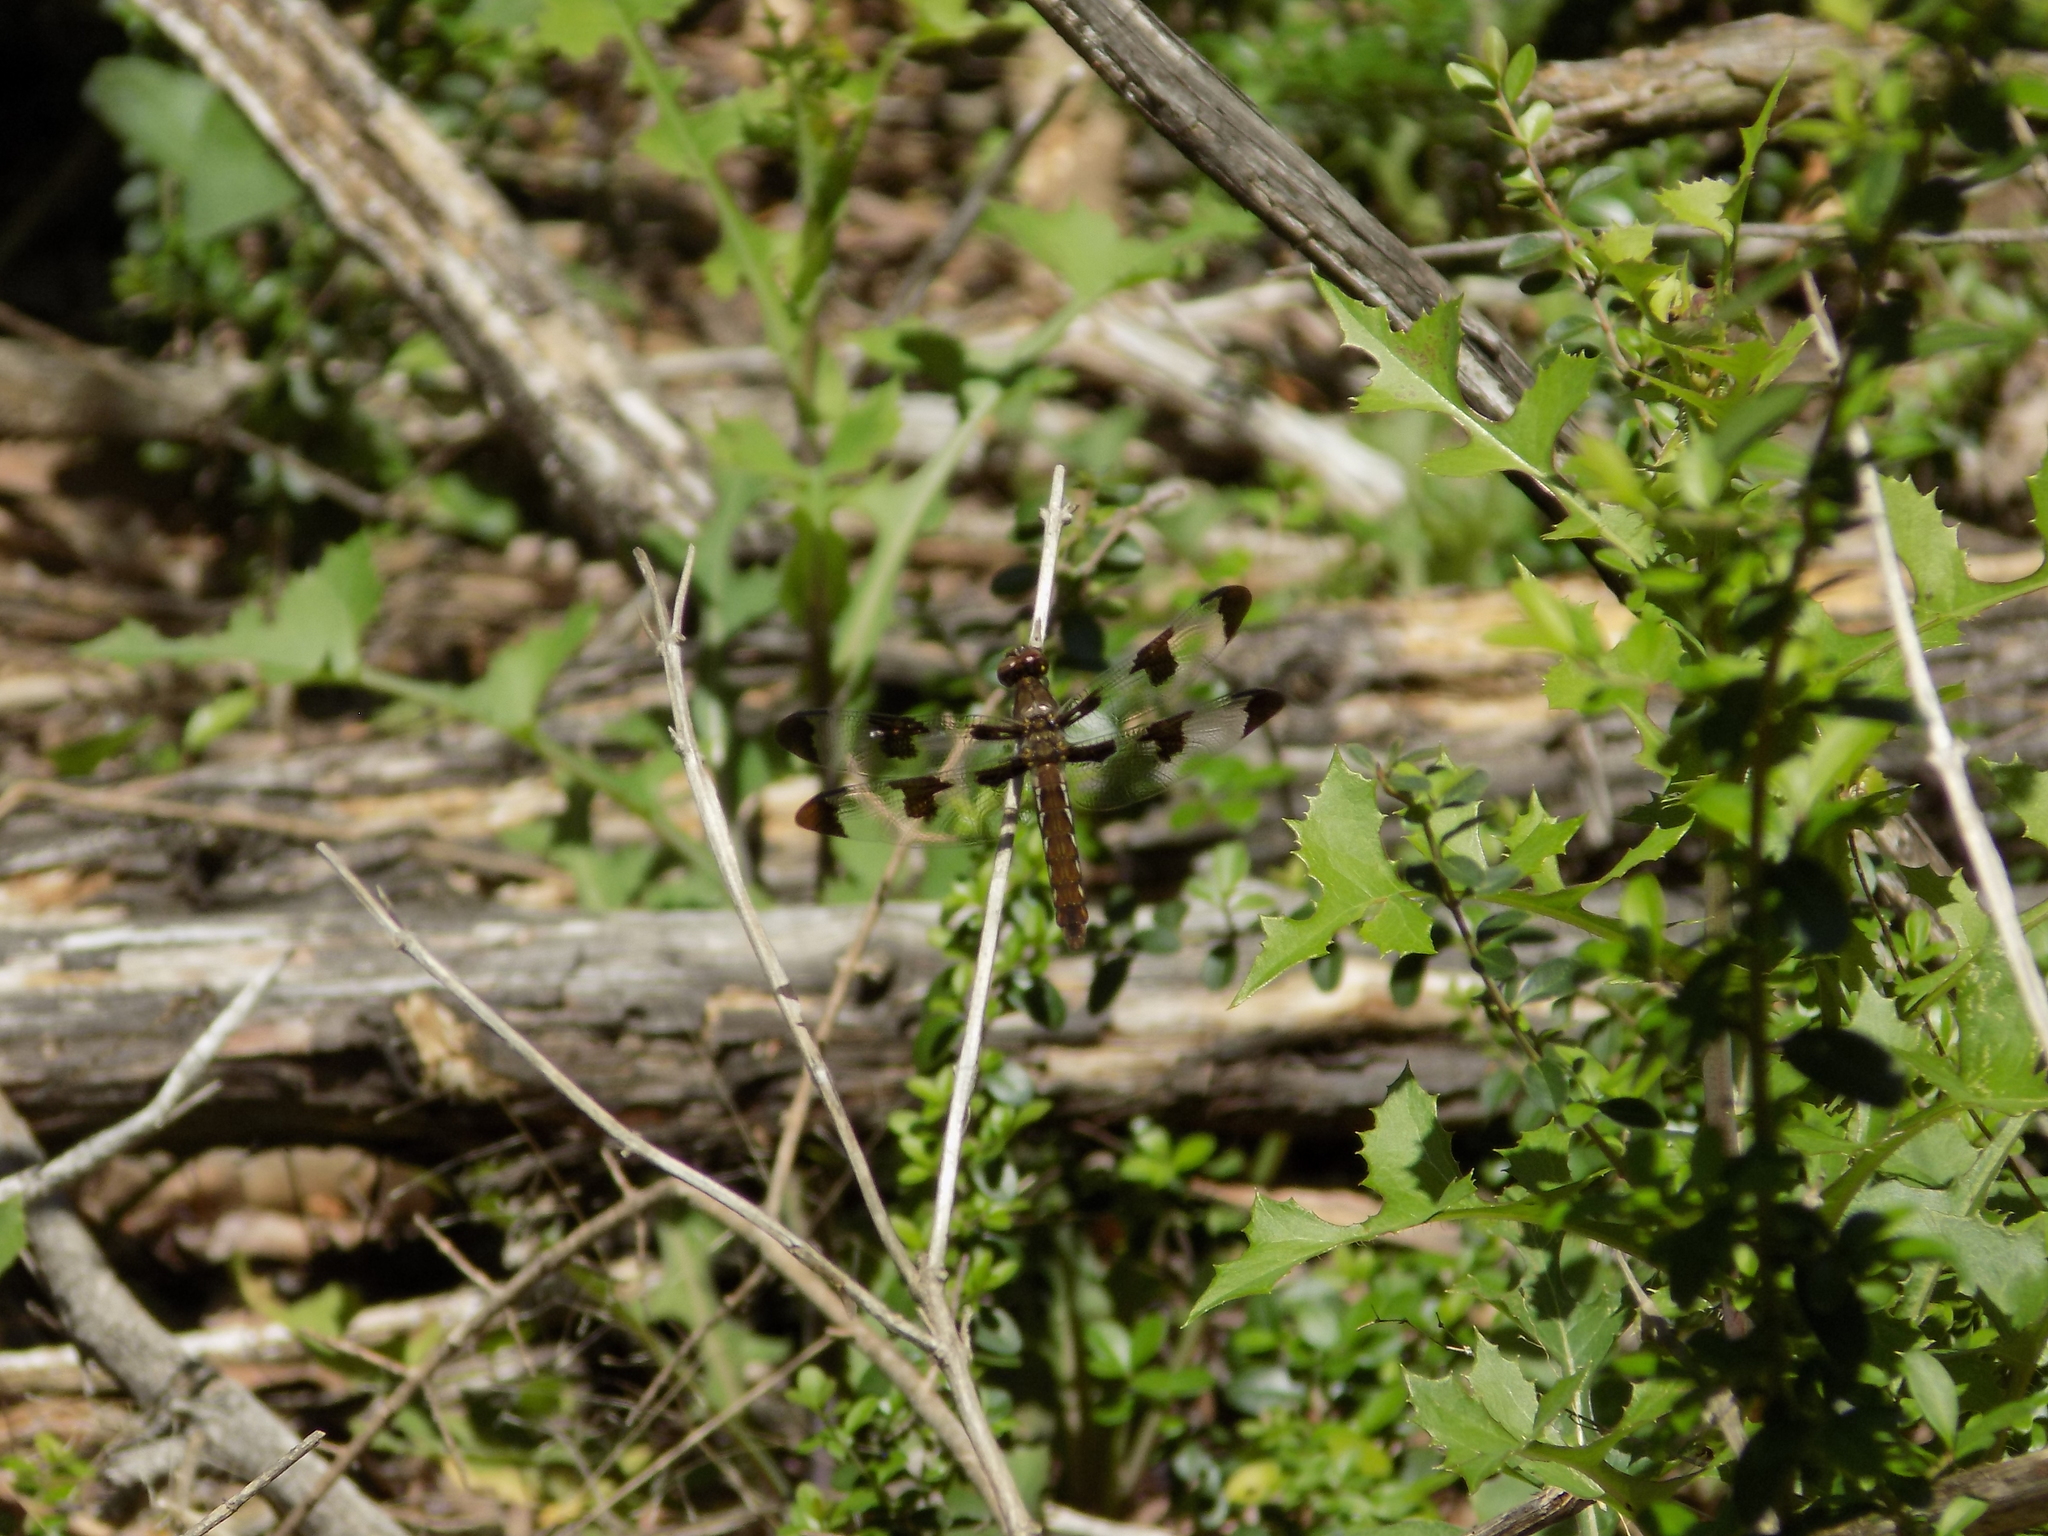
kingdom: Animalia
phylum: Arthropoda
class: Insecta
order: Odonata
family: Libellulidae
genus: Plathemis
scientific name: Plathemis lydia
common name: Common whitetail
